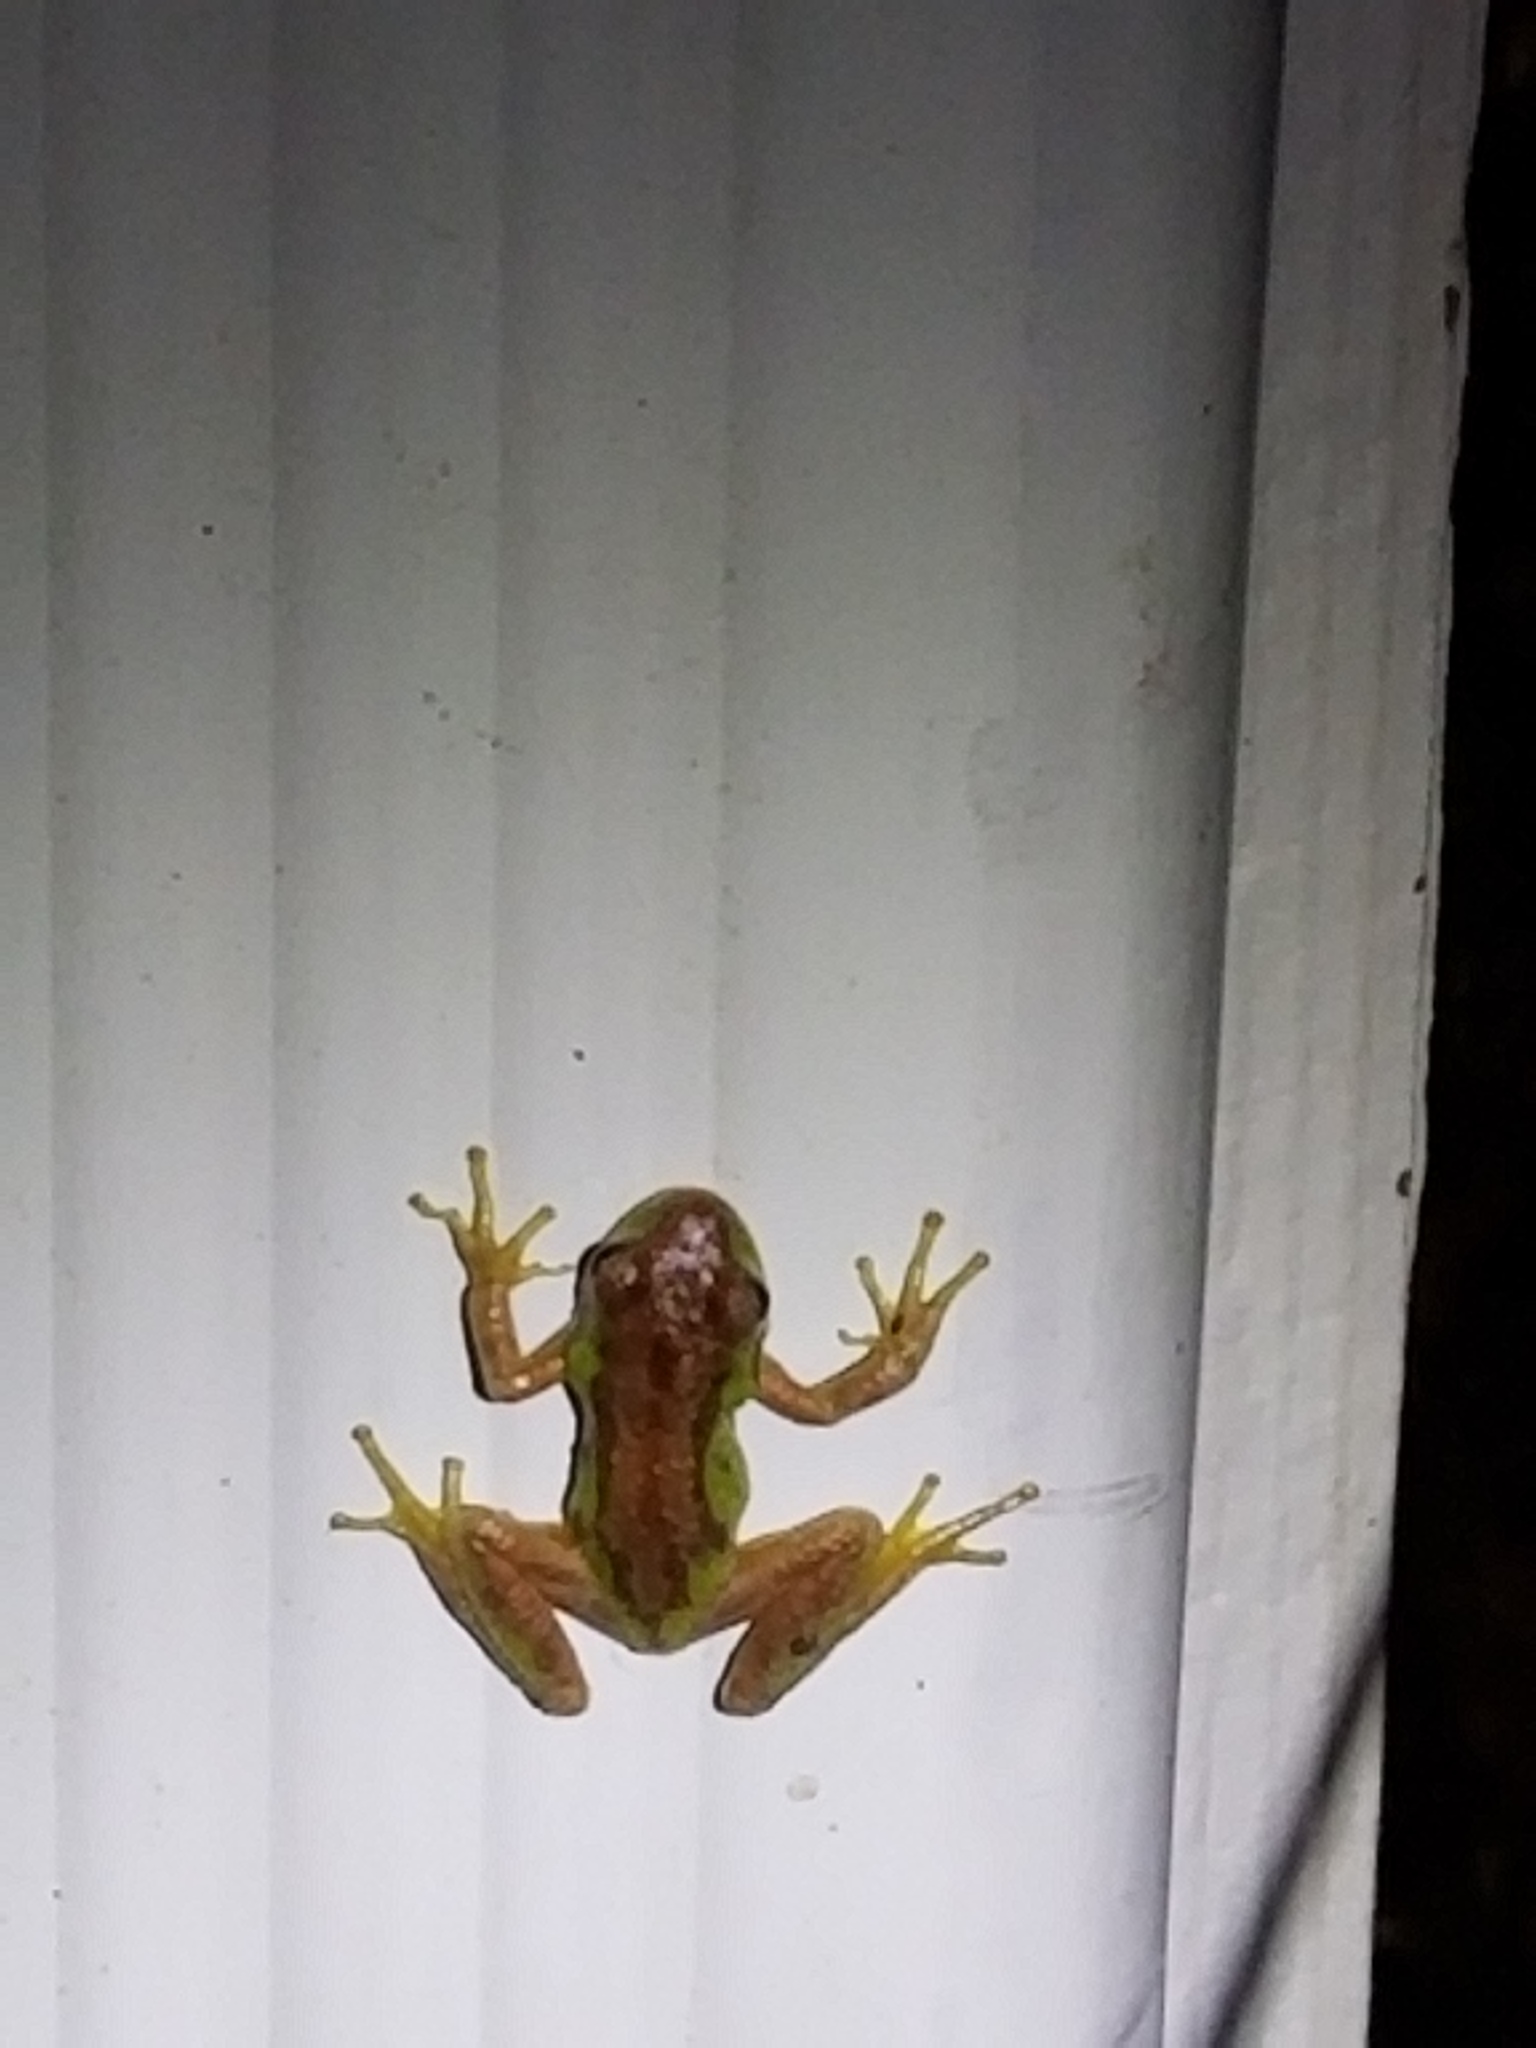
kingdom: Animalia
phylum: Chordata
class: Amphibia
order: Anura
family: Hylidae
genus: Pseudacris
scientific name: Pseudacris regilla
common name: Pacific chorus frog
